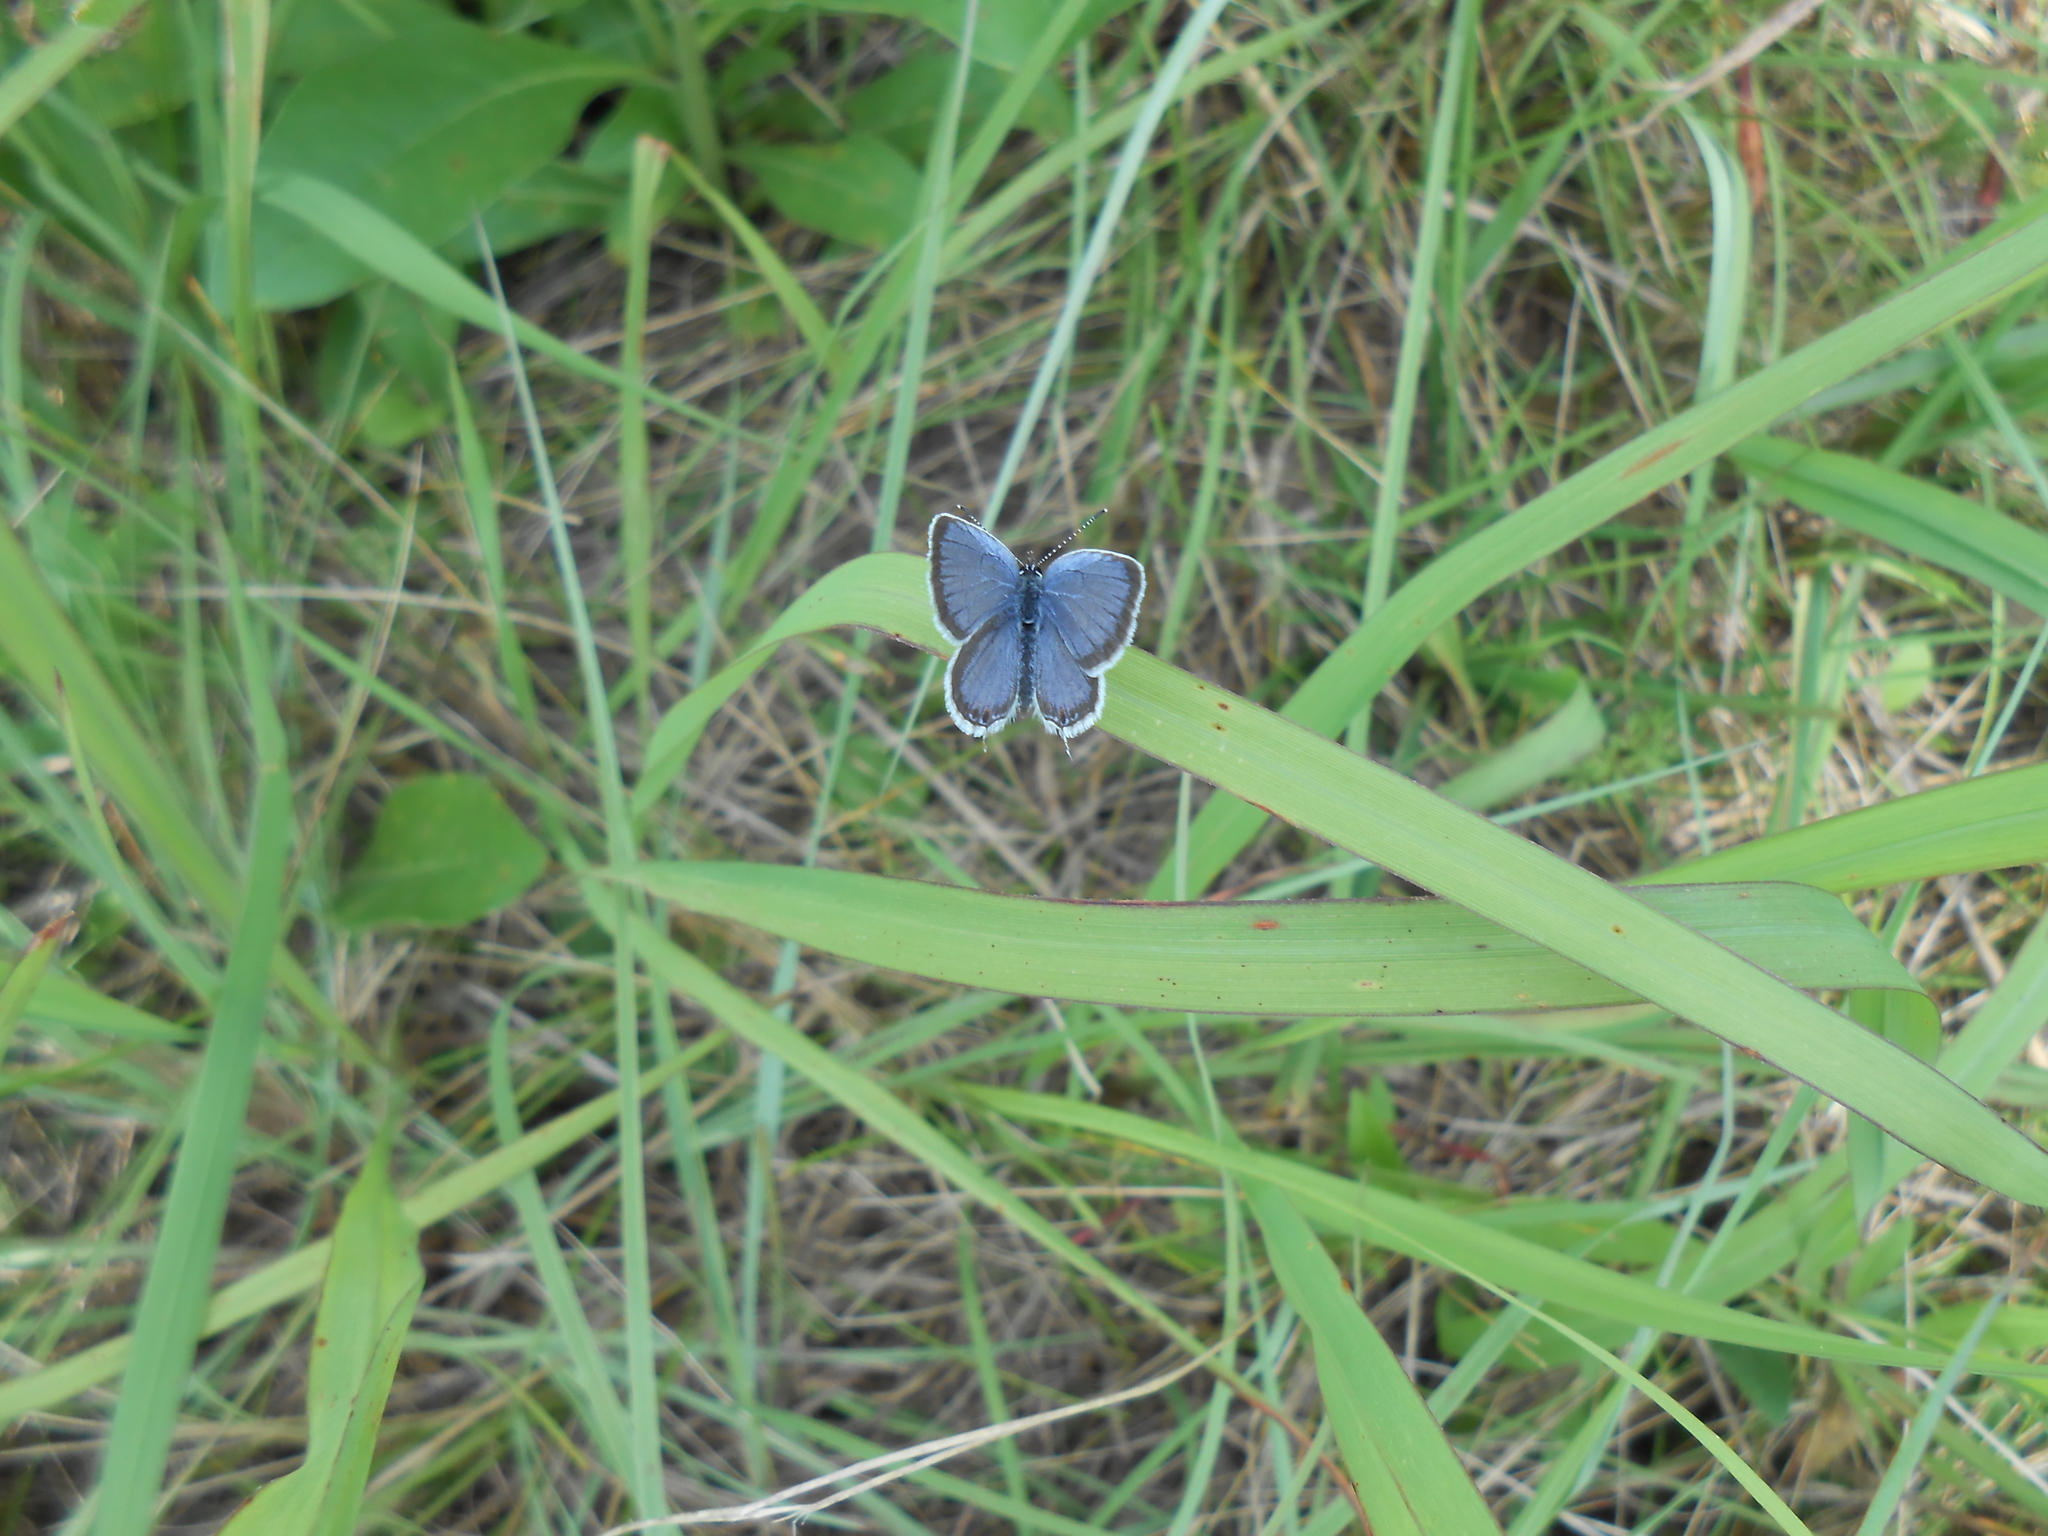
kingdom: Animalia
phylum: Arthropoda
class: Insecta
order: Lepidoptera
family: Lycaenidae
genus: Elkalyce
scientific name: Elkalyce comyntas
